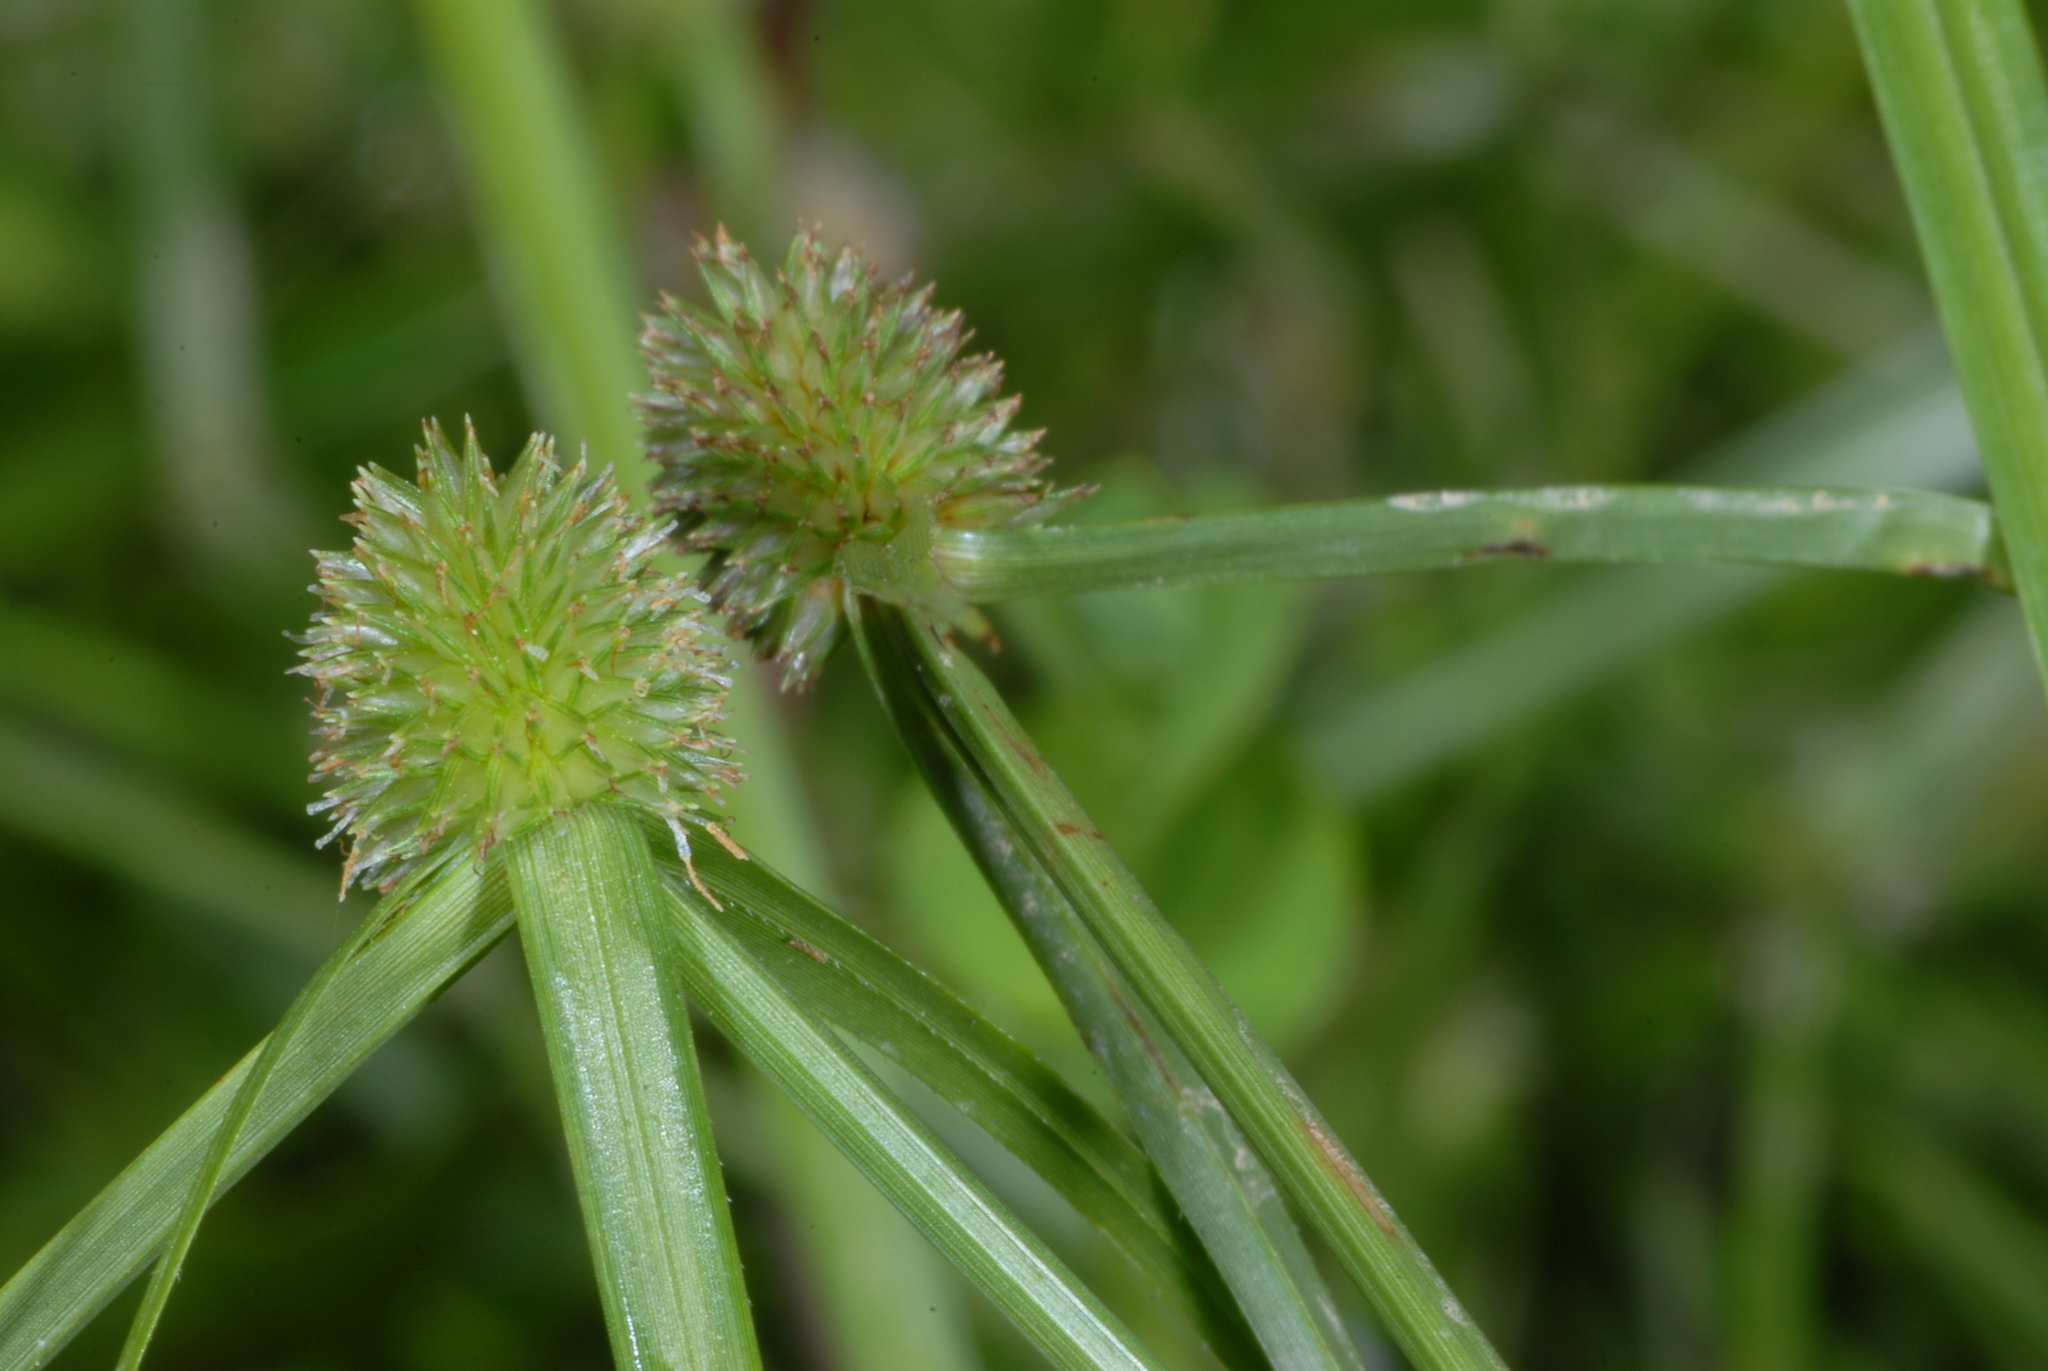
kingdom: Plantae
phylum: Tracheophyta
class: Liliopsida
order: Poales
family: Cyperaceae
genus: Cyperus
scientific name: Cyperus brevifolius
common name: Globe kyllinga
